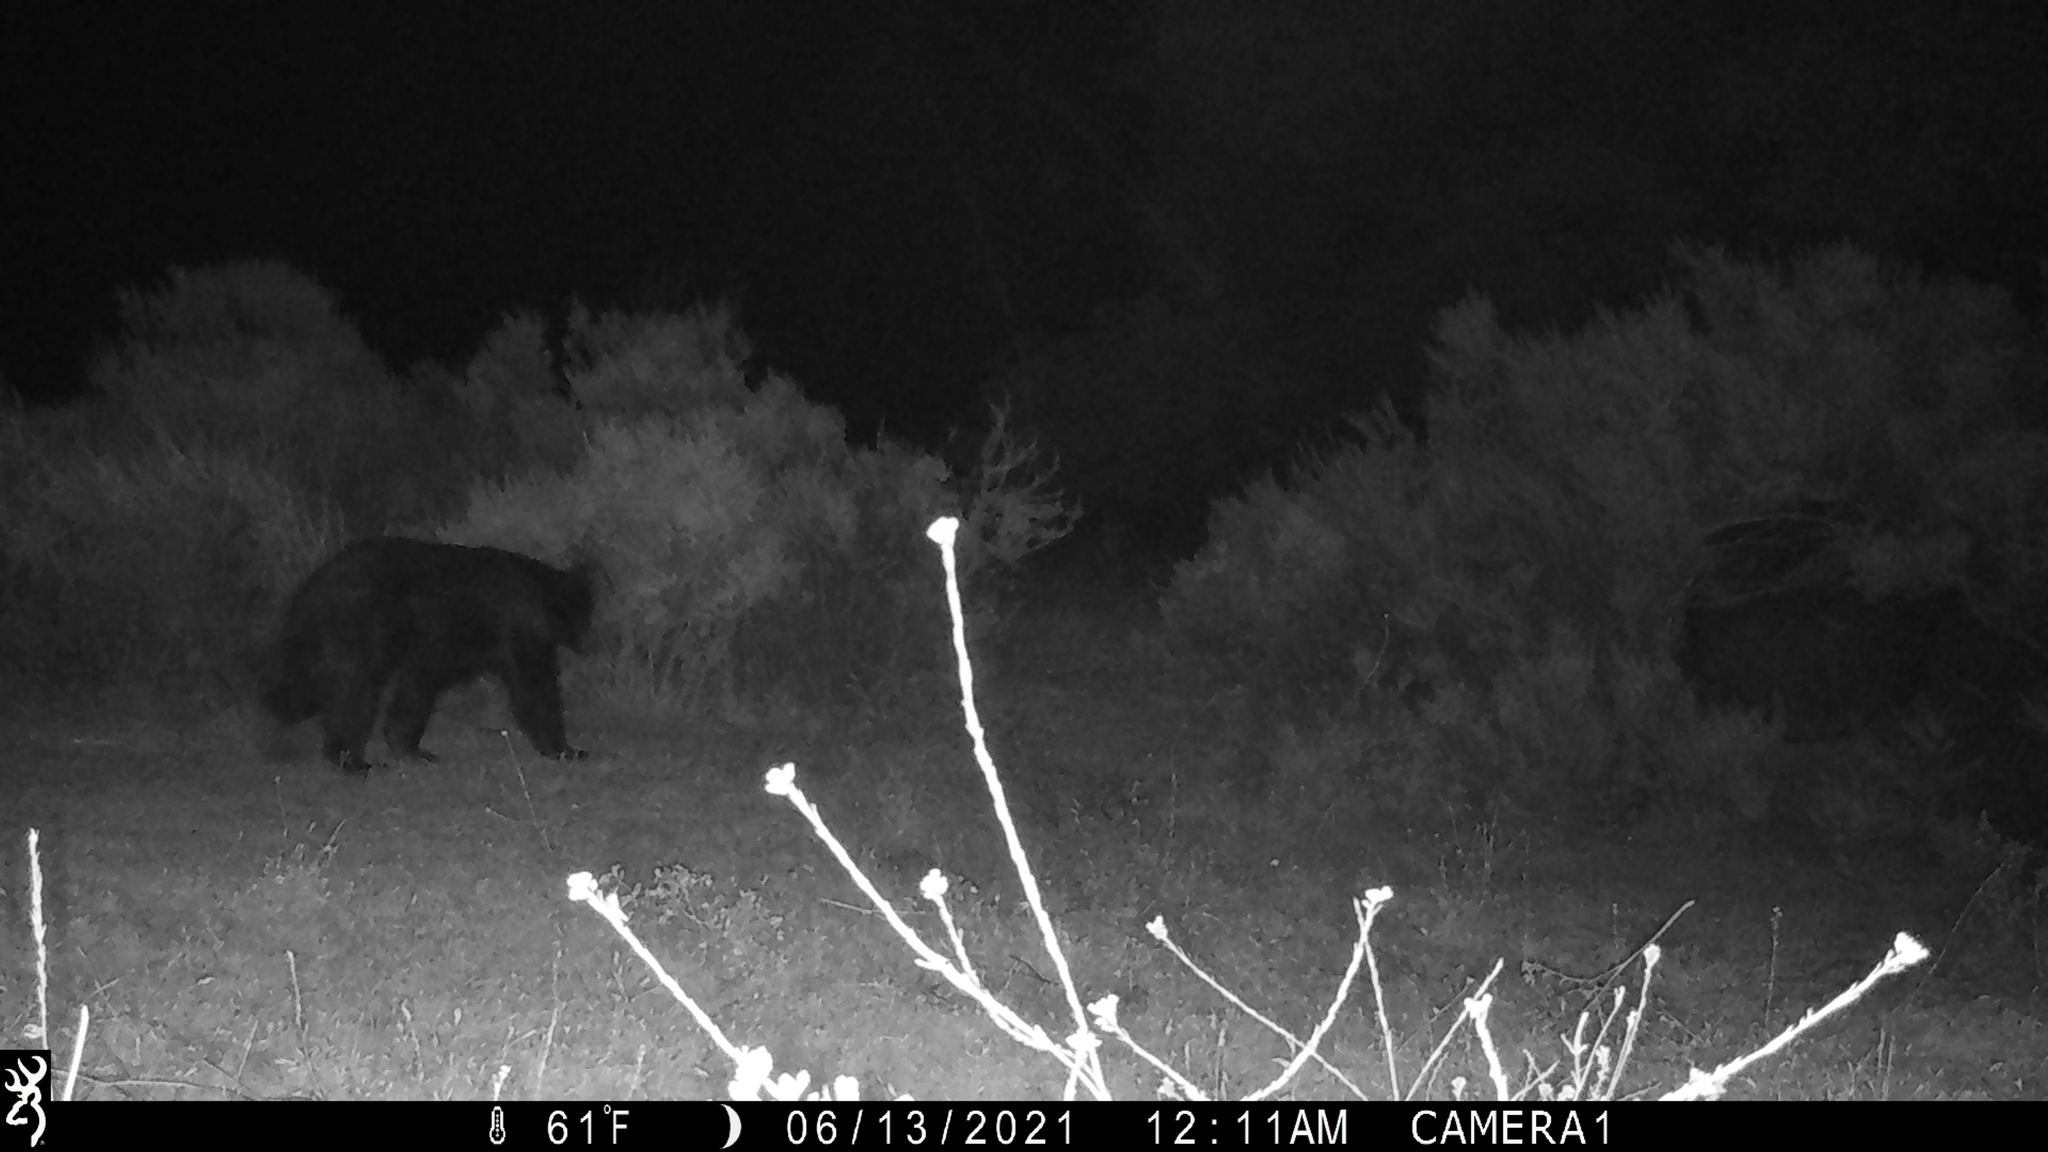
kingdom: Animalia
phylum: Chordata
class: Mammalia
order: Carnivora
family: Ursidae
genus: Ursus
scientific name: Ursus americanus
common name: American black bear
